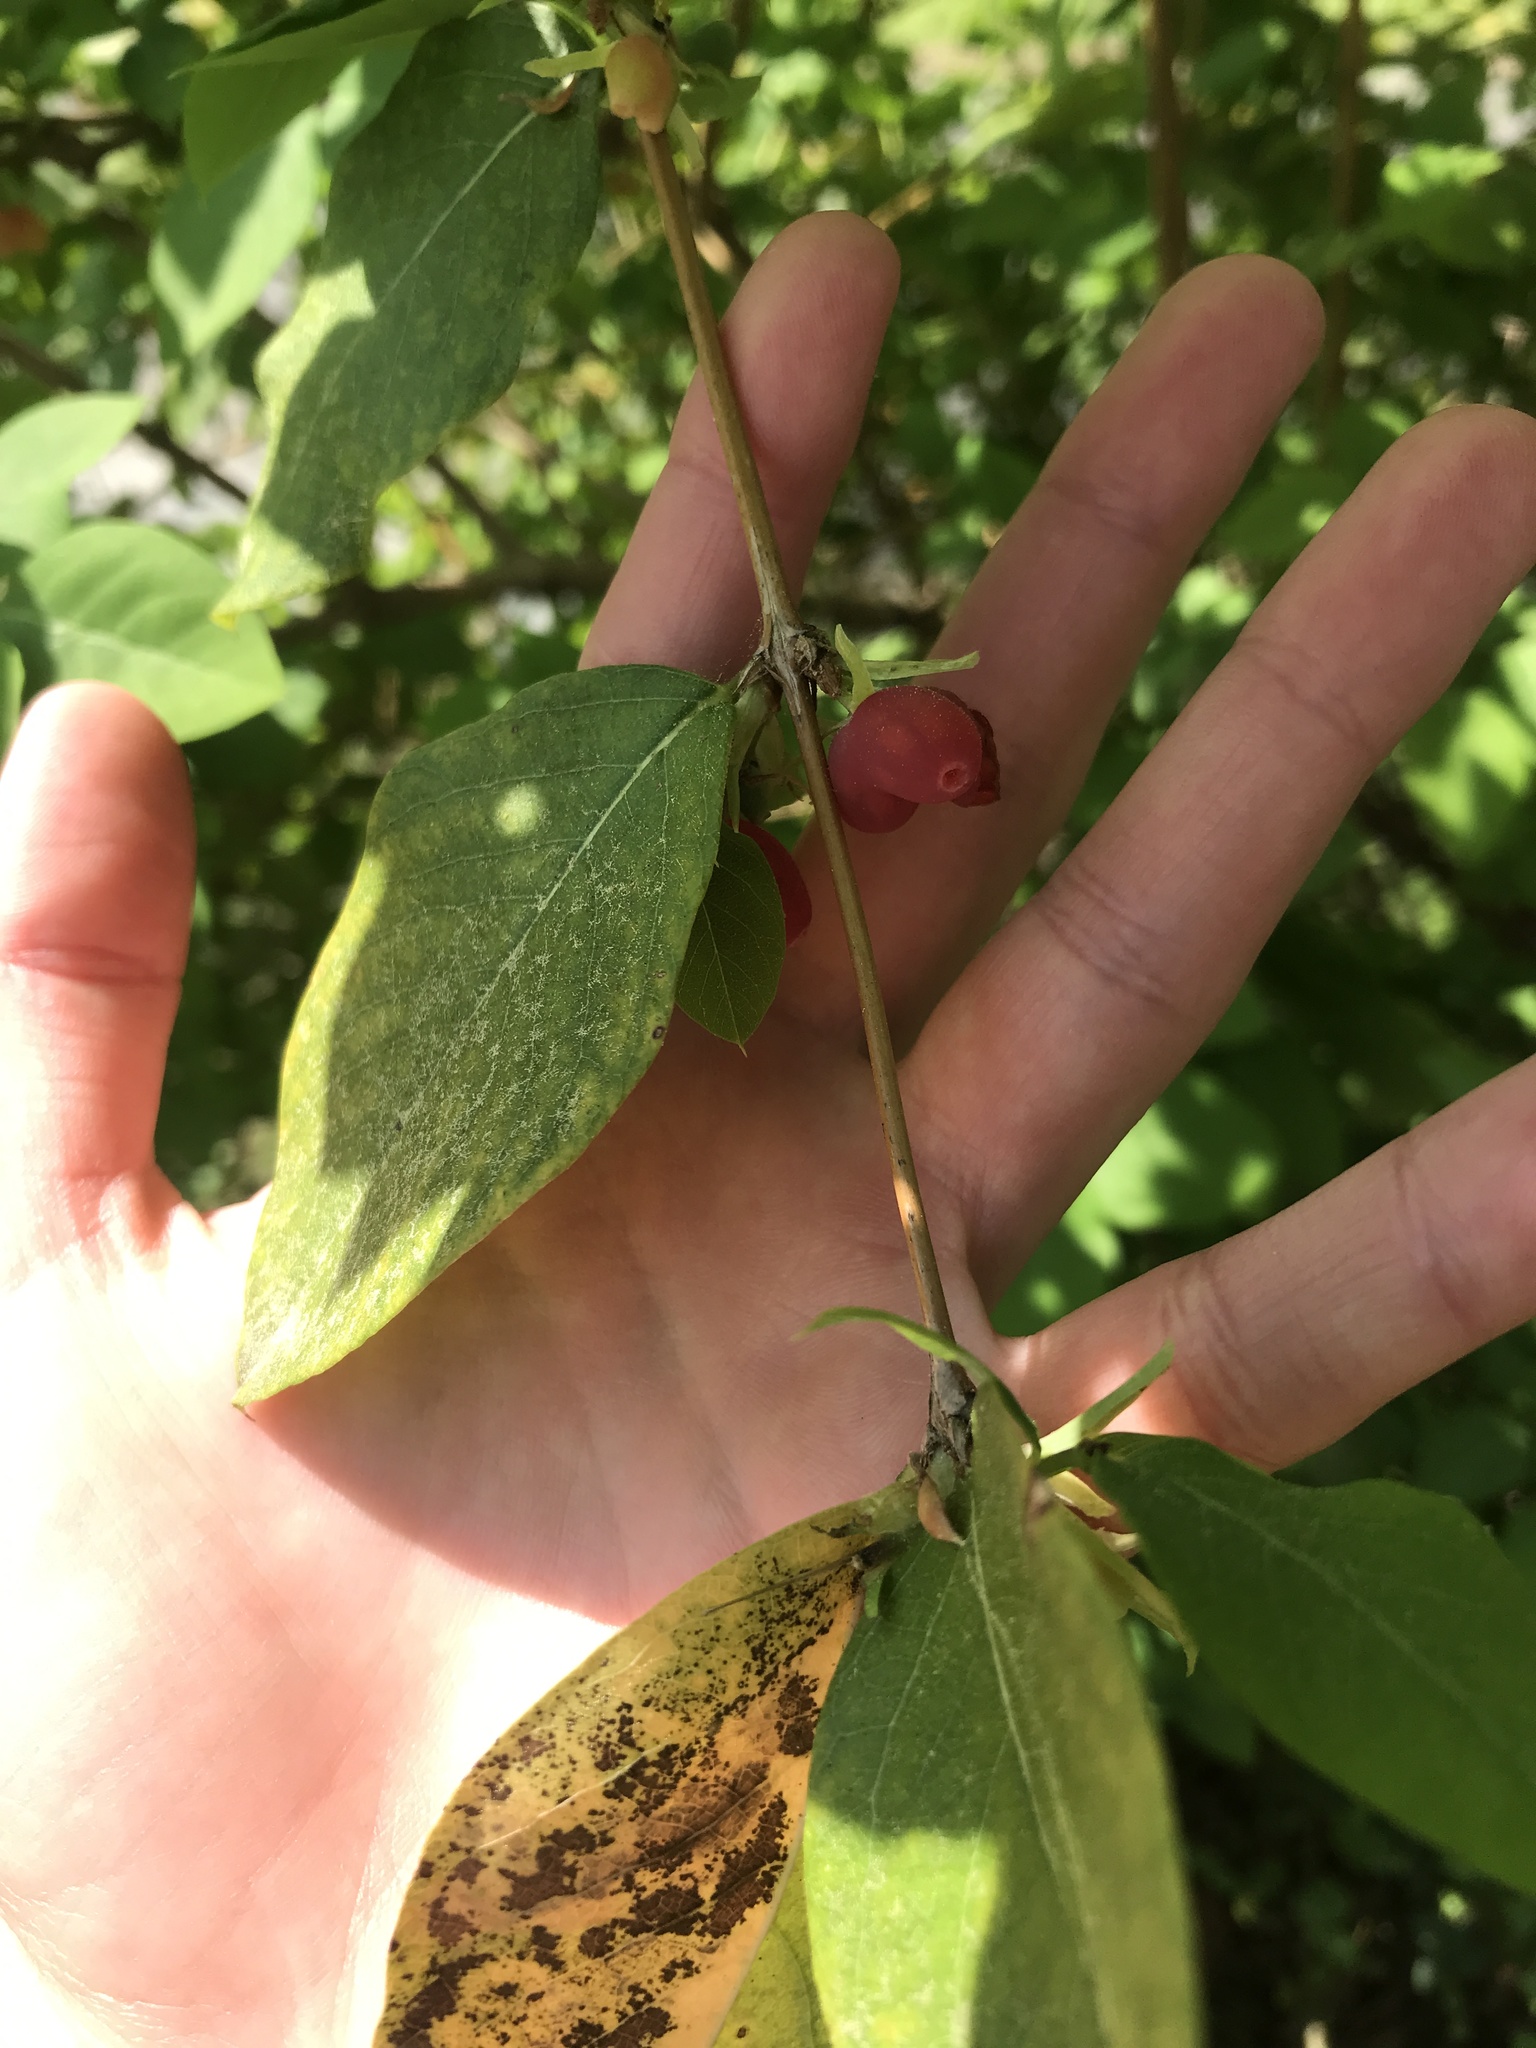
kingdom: Plantae
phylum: Tracheophyta
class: Magnoliopsida
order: Dipsacales
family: Caprifoliaceae
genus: Lonicera
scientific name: Lonicera fragrantissima
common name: Fragrant honeysuckle
